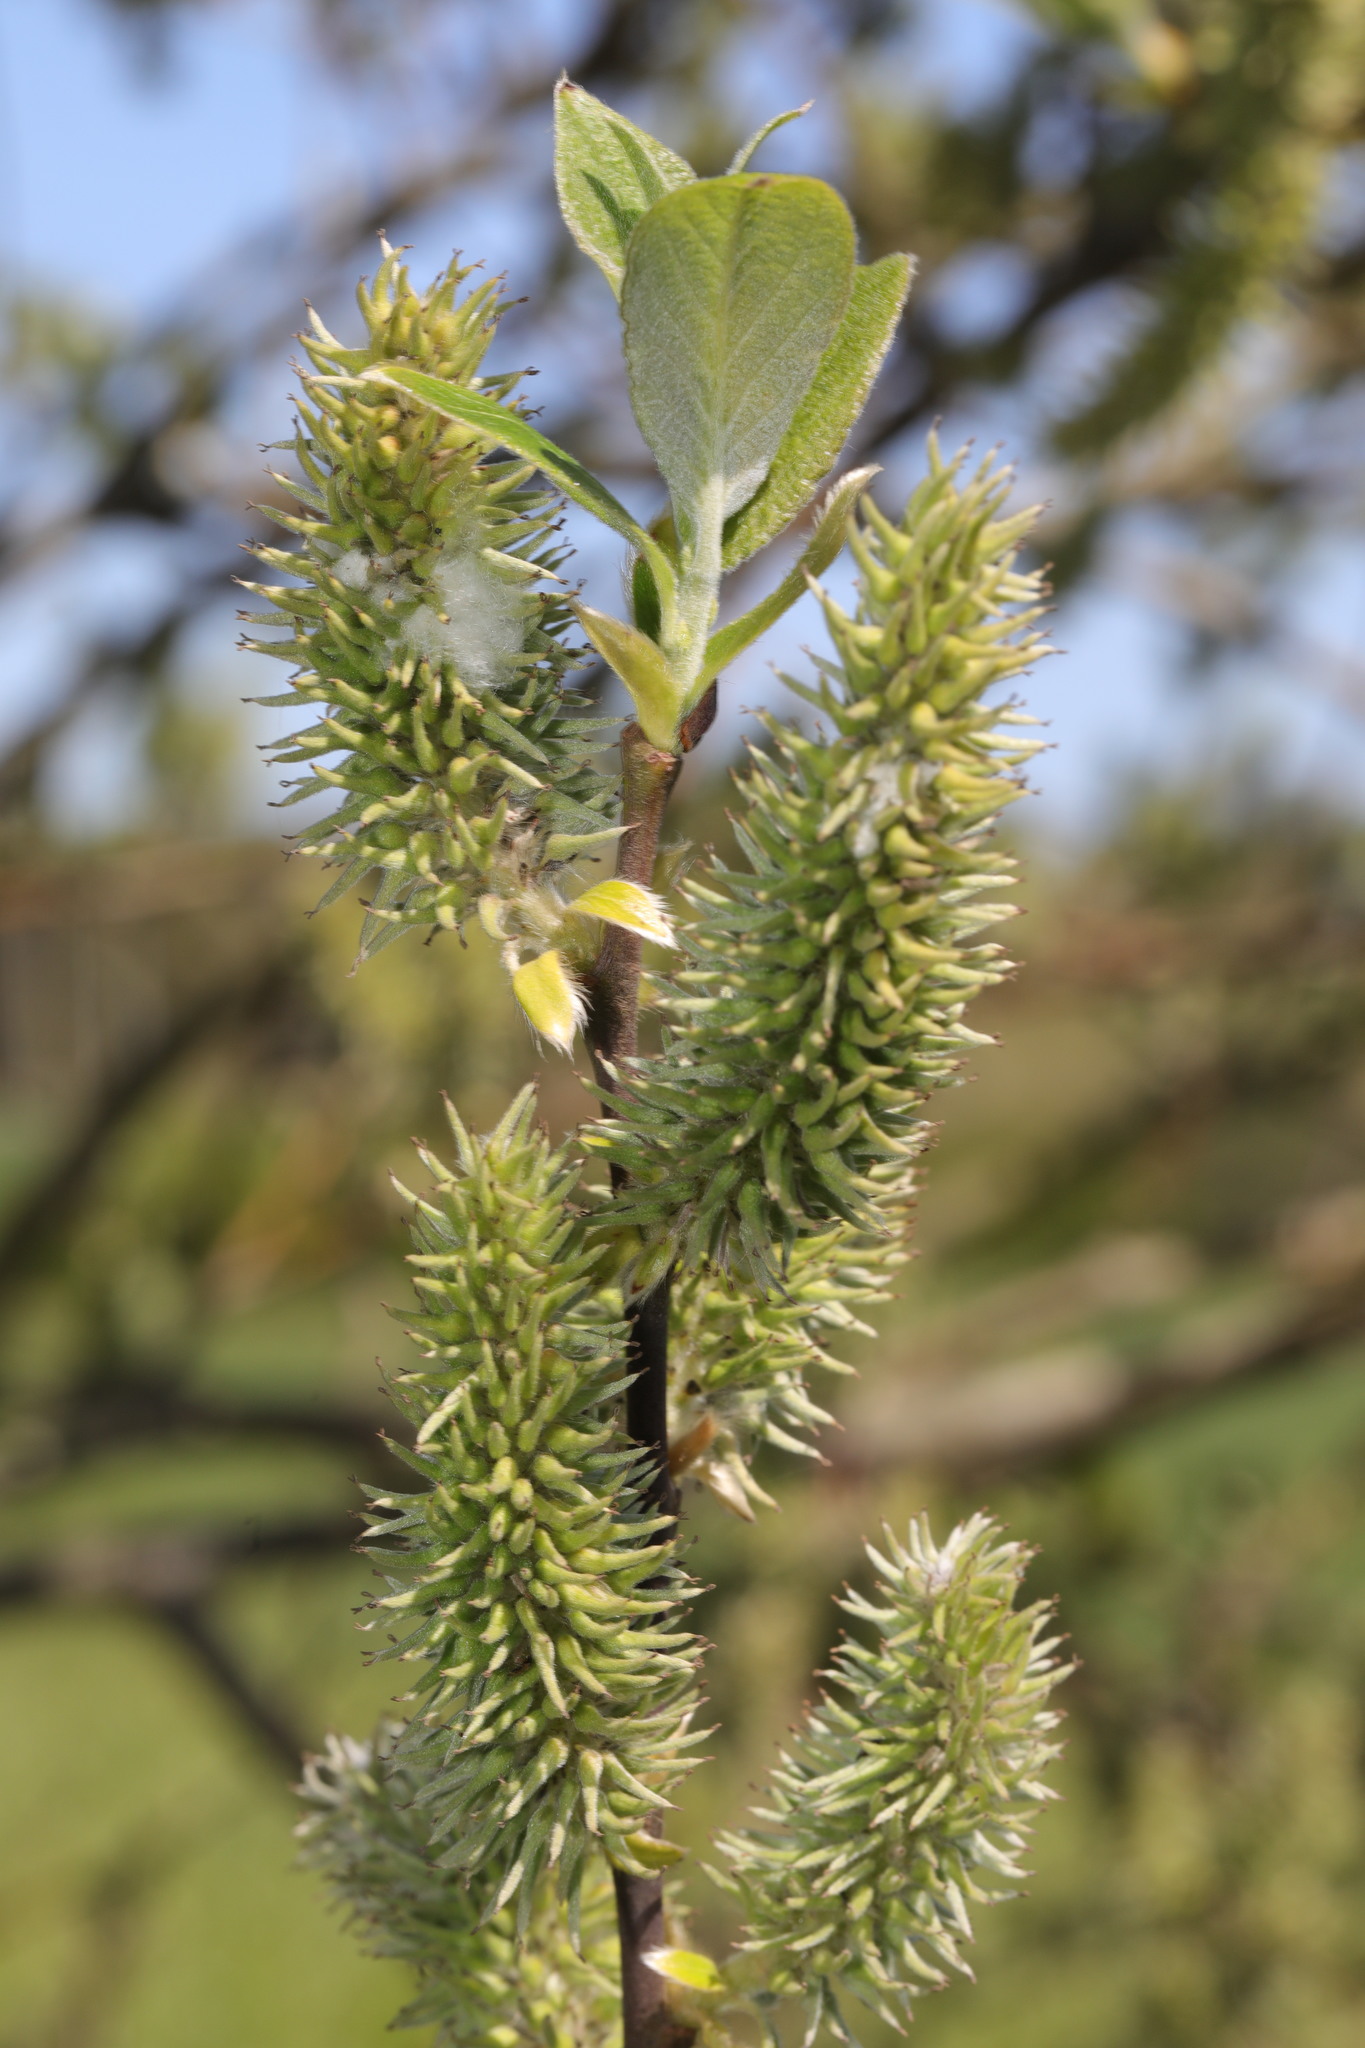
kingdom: Plantae
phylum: Tracheophyta
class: Magnoliopsida
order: Malpighiales
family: Salicaceae
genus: Salix
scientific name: Salix cinerea
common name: Common sallow
